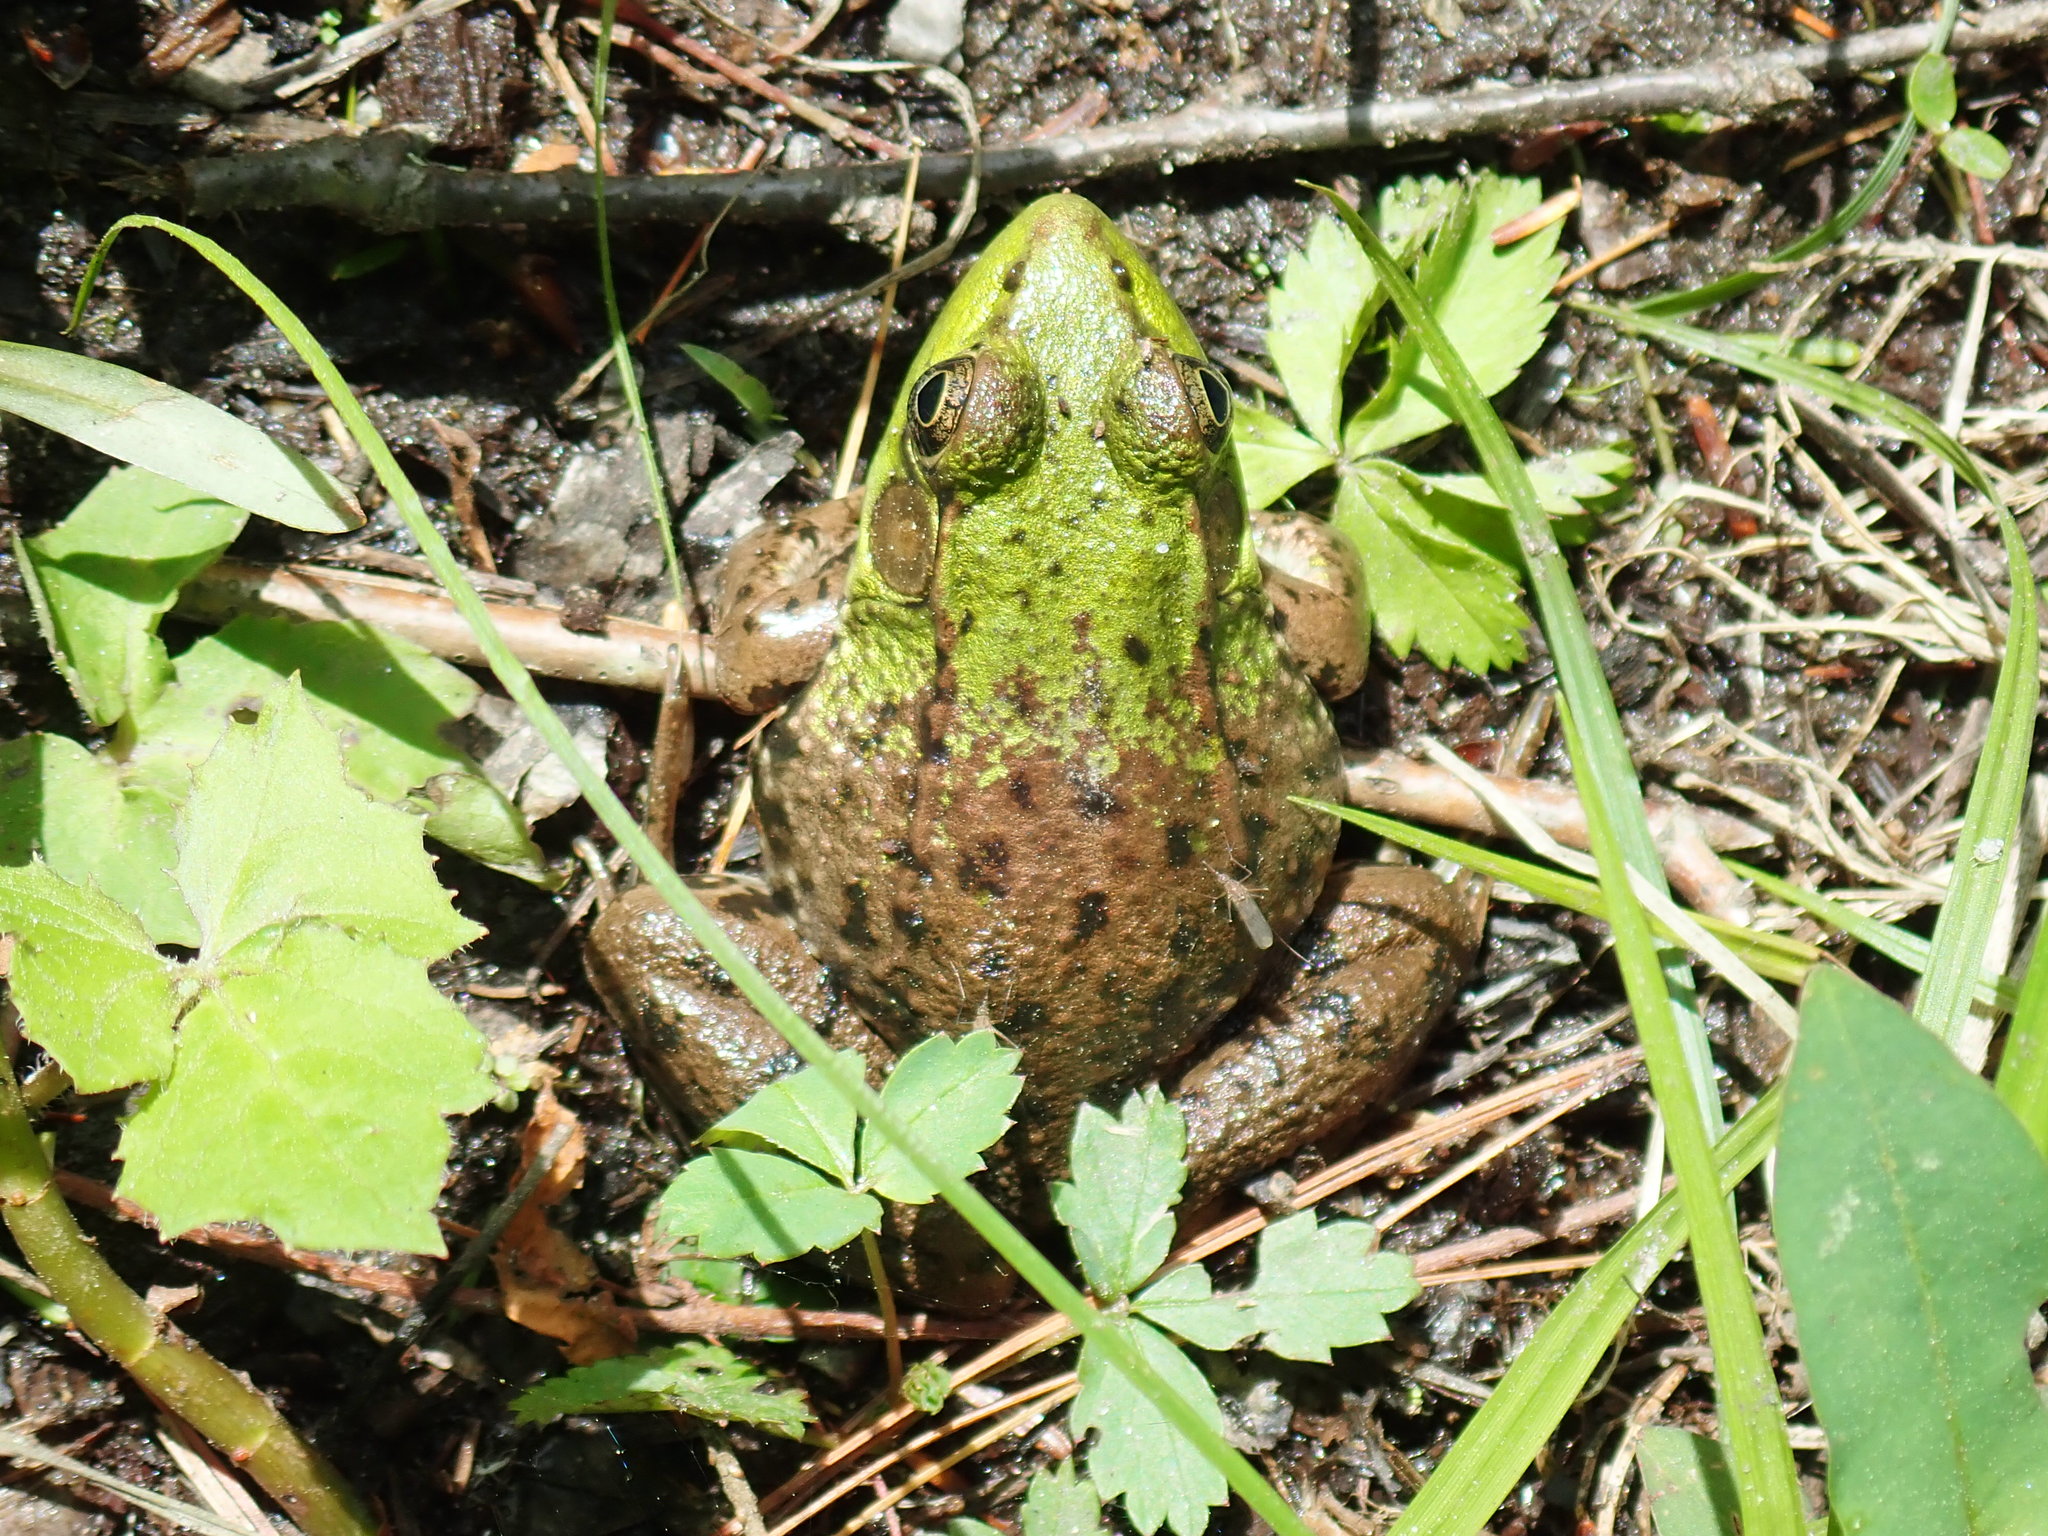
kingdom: Animalia
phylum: Chordata
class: Amphibia
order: Anura
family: Ranidae
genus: Lithobates
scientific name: Lithobates clamitans
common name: Green frog
